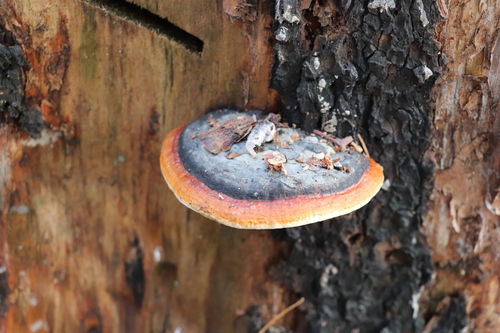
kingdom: Fungi
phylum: Basidiomycota
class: Agaricomycetes
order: Polyporales
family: Fomitopsidaceae
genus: Fomitopsis
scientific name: Fomitopsis pinicola
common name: Red-belted bracket
